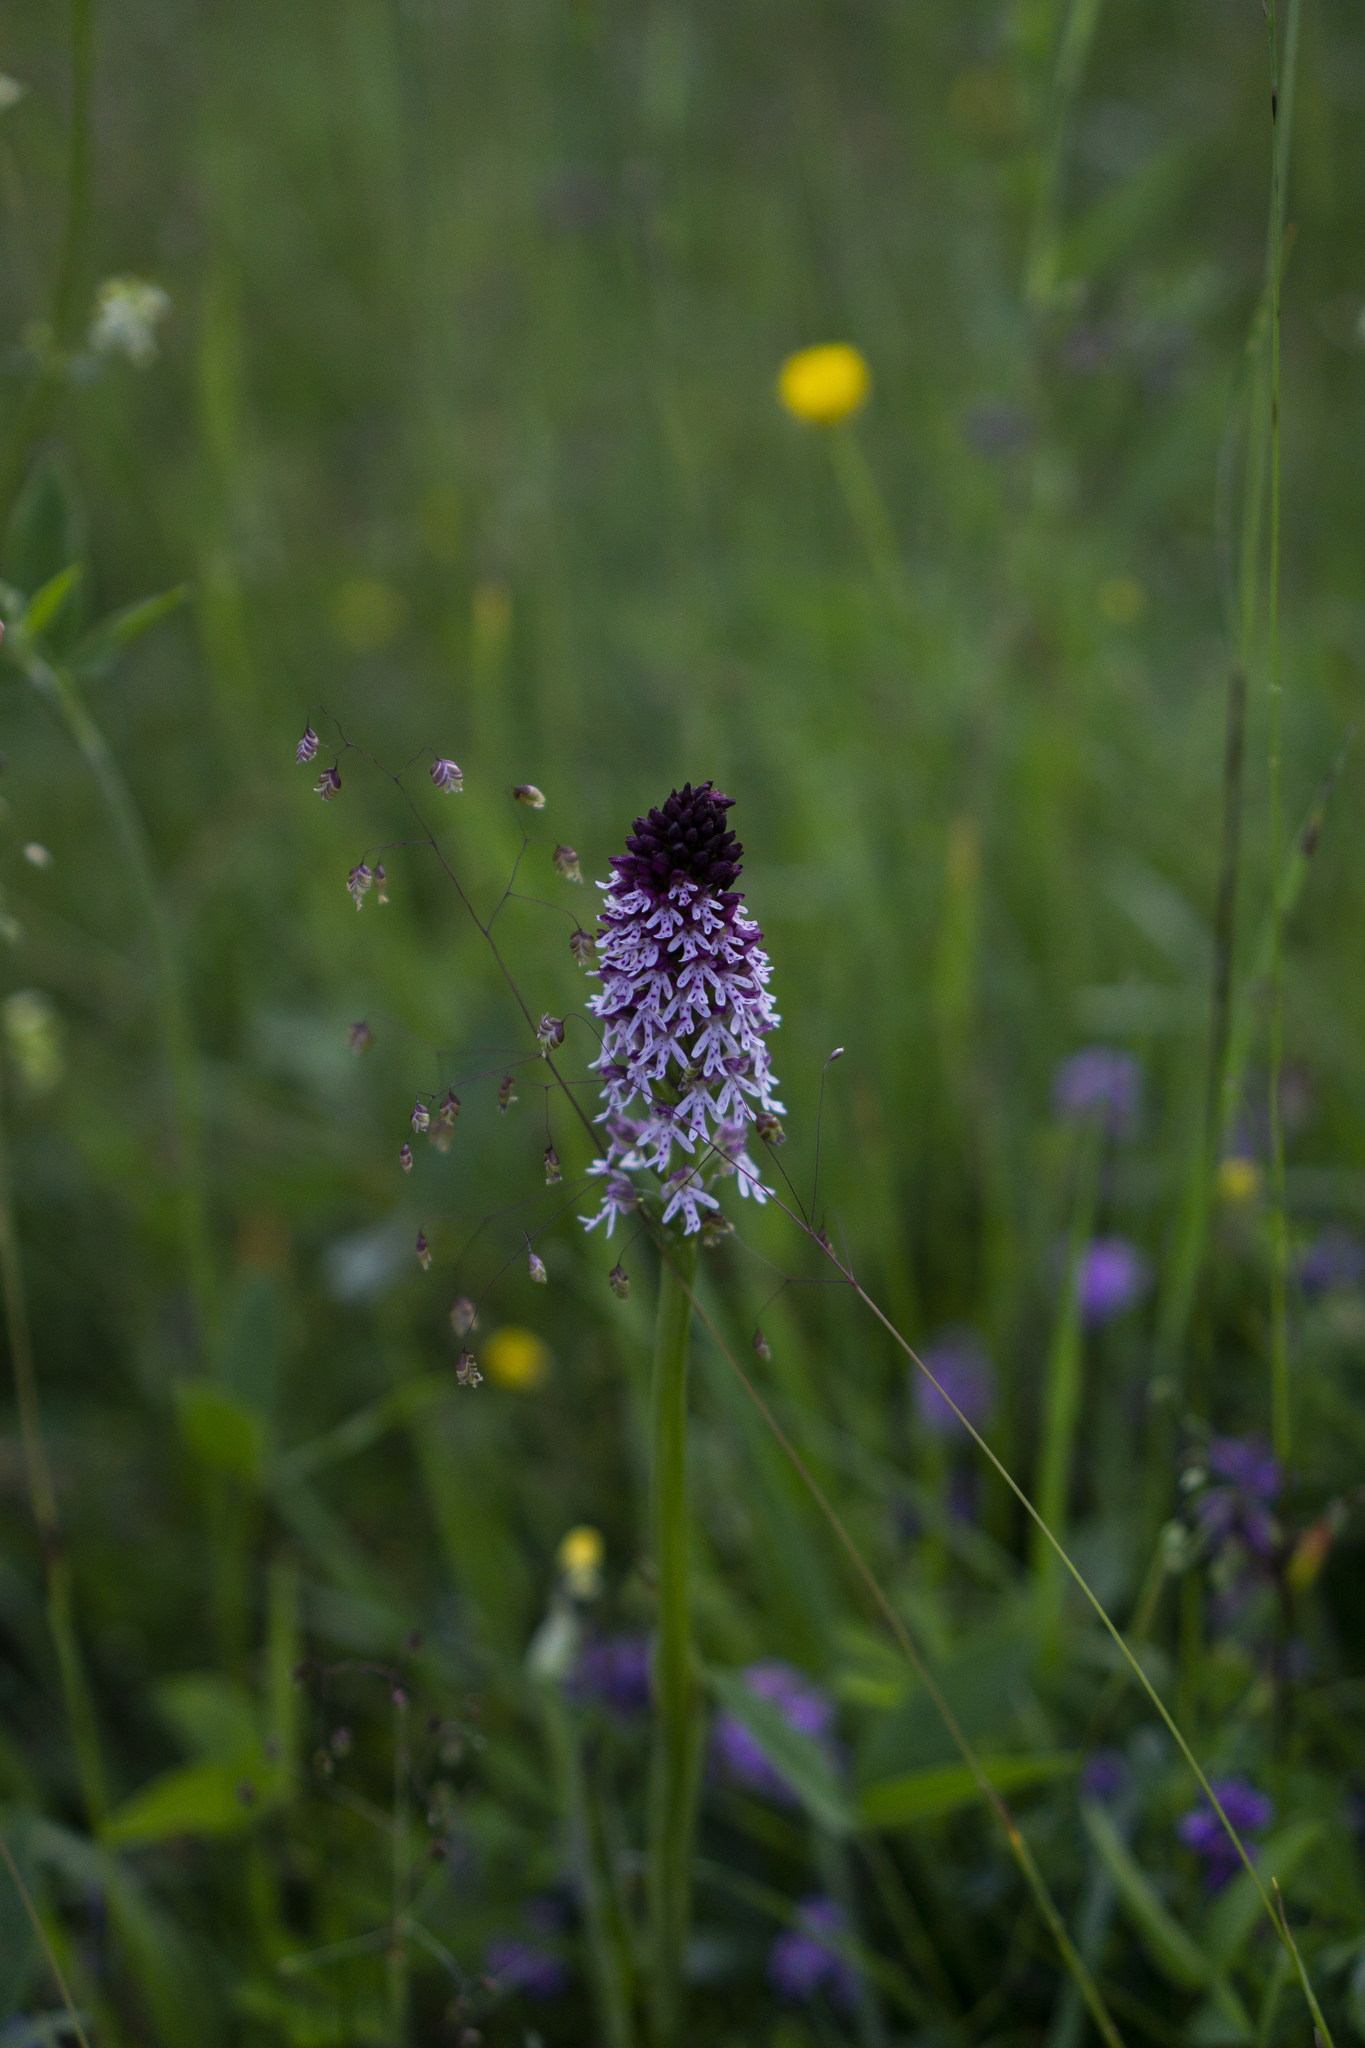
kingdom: Plantae
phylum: Tracheophyta
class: Liliopsida
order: Asparagales
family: Orchidaceae
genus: Neotinea
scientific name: Neotinea ustulata
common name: Burnt orchid
